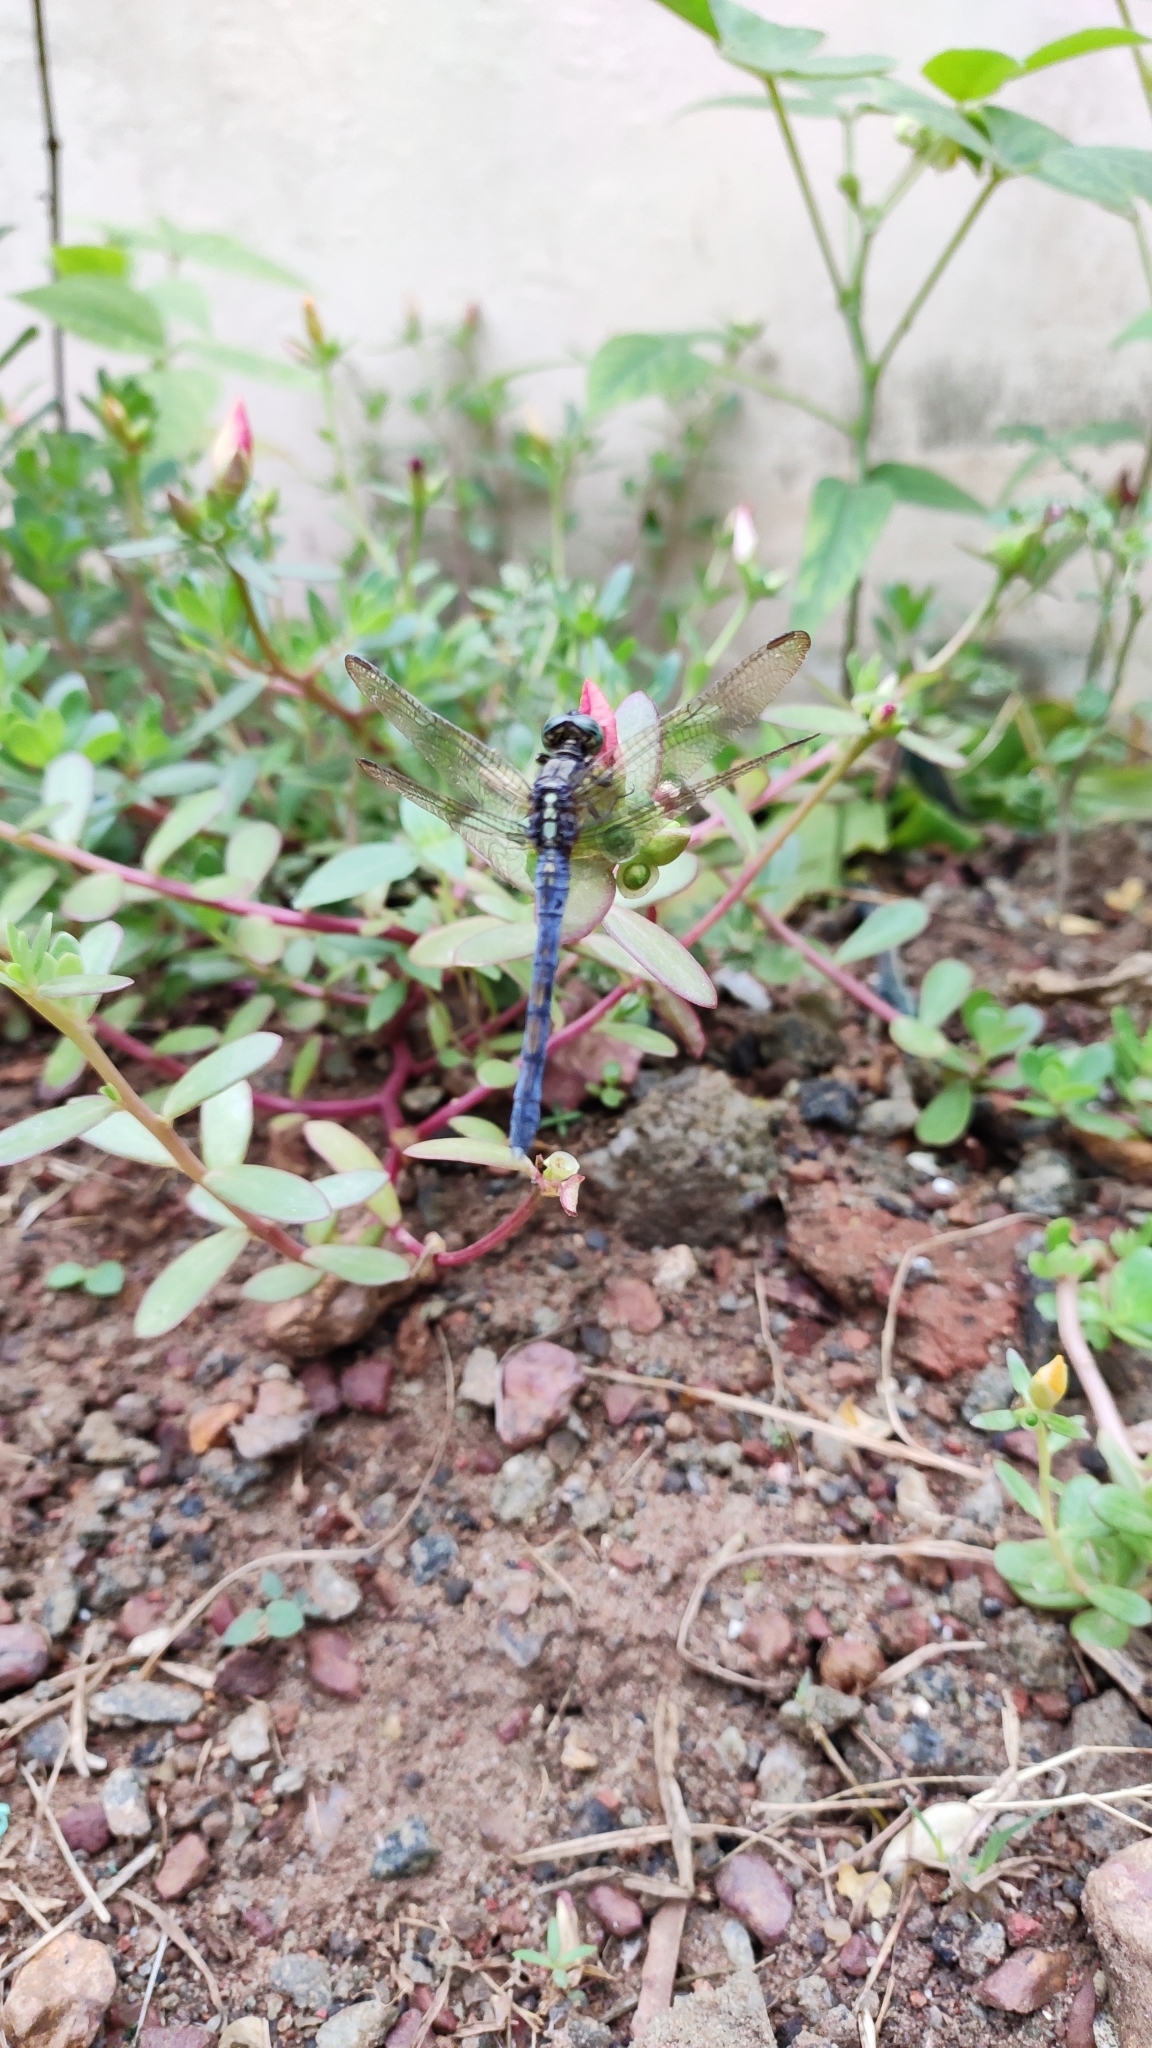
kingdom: Animalia
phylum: Arthropoda
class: Insecta
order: Odonata
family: Libellulidae
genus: Orthetrum
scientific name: Orthetrum luzonicum
